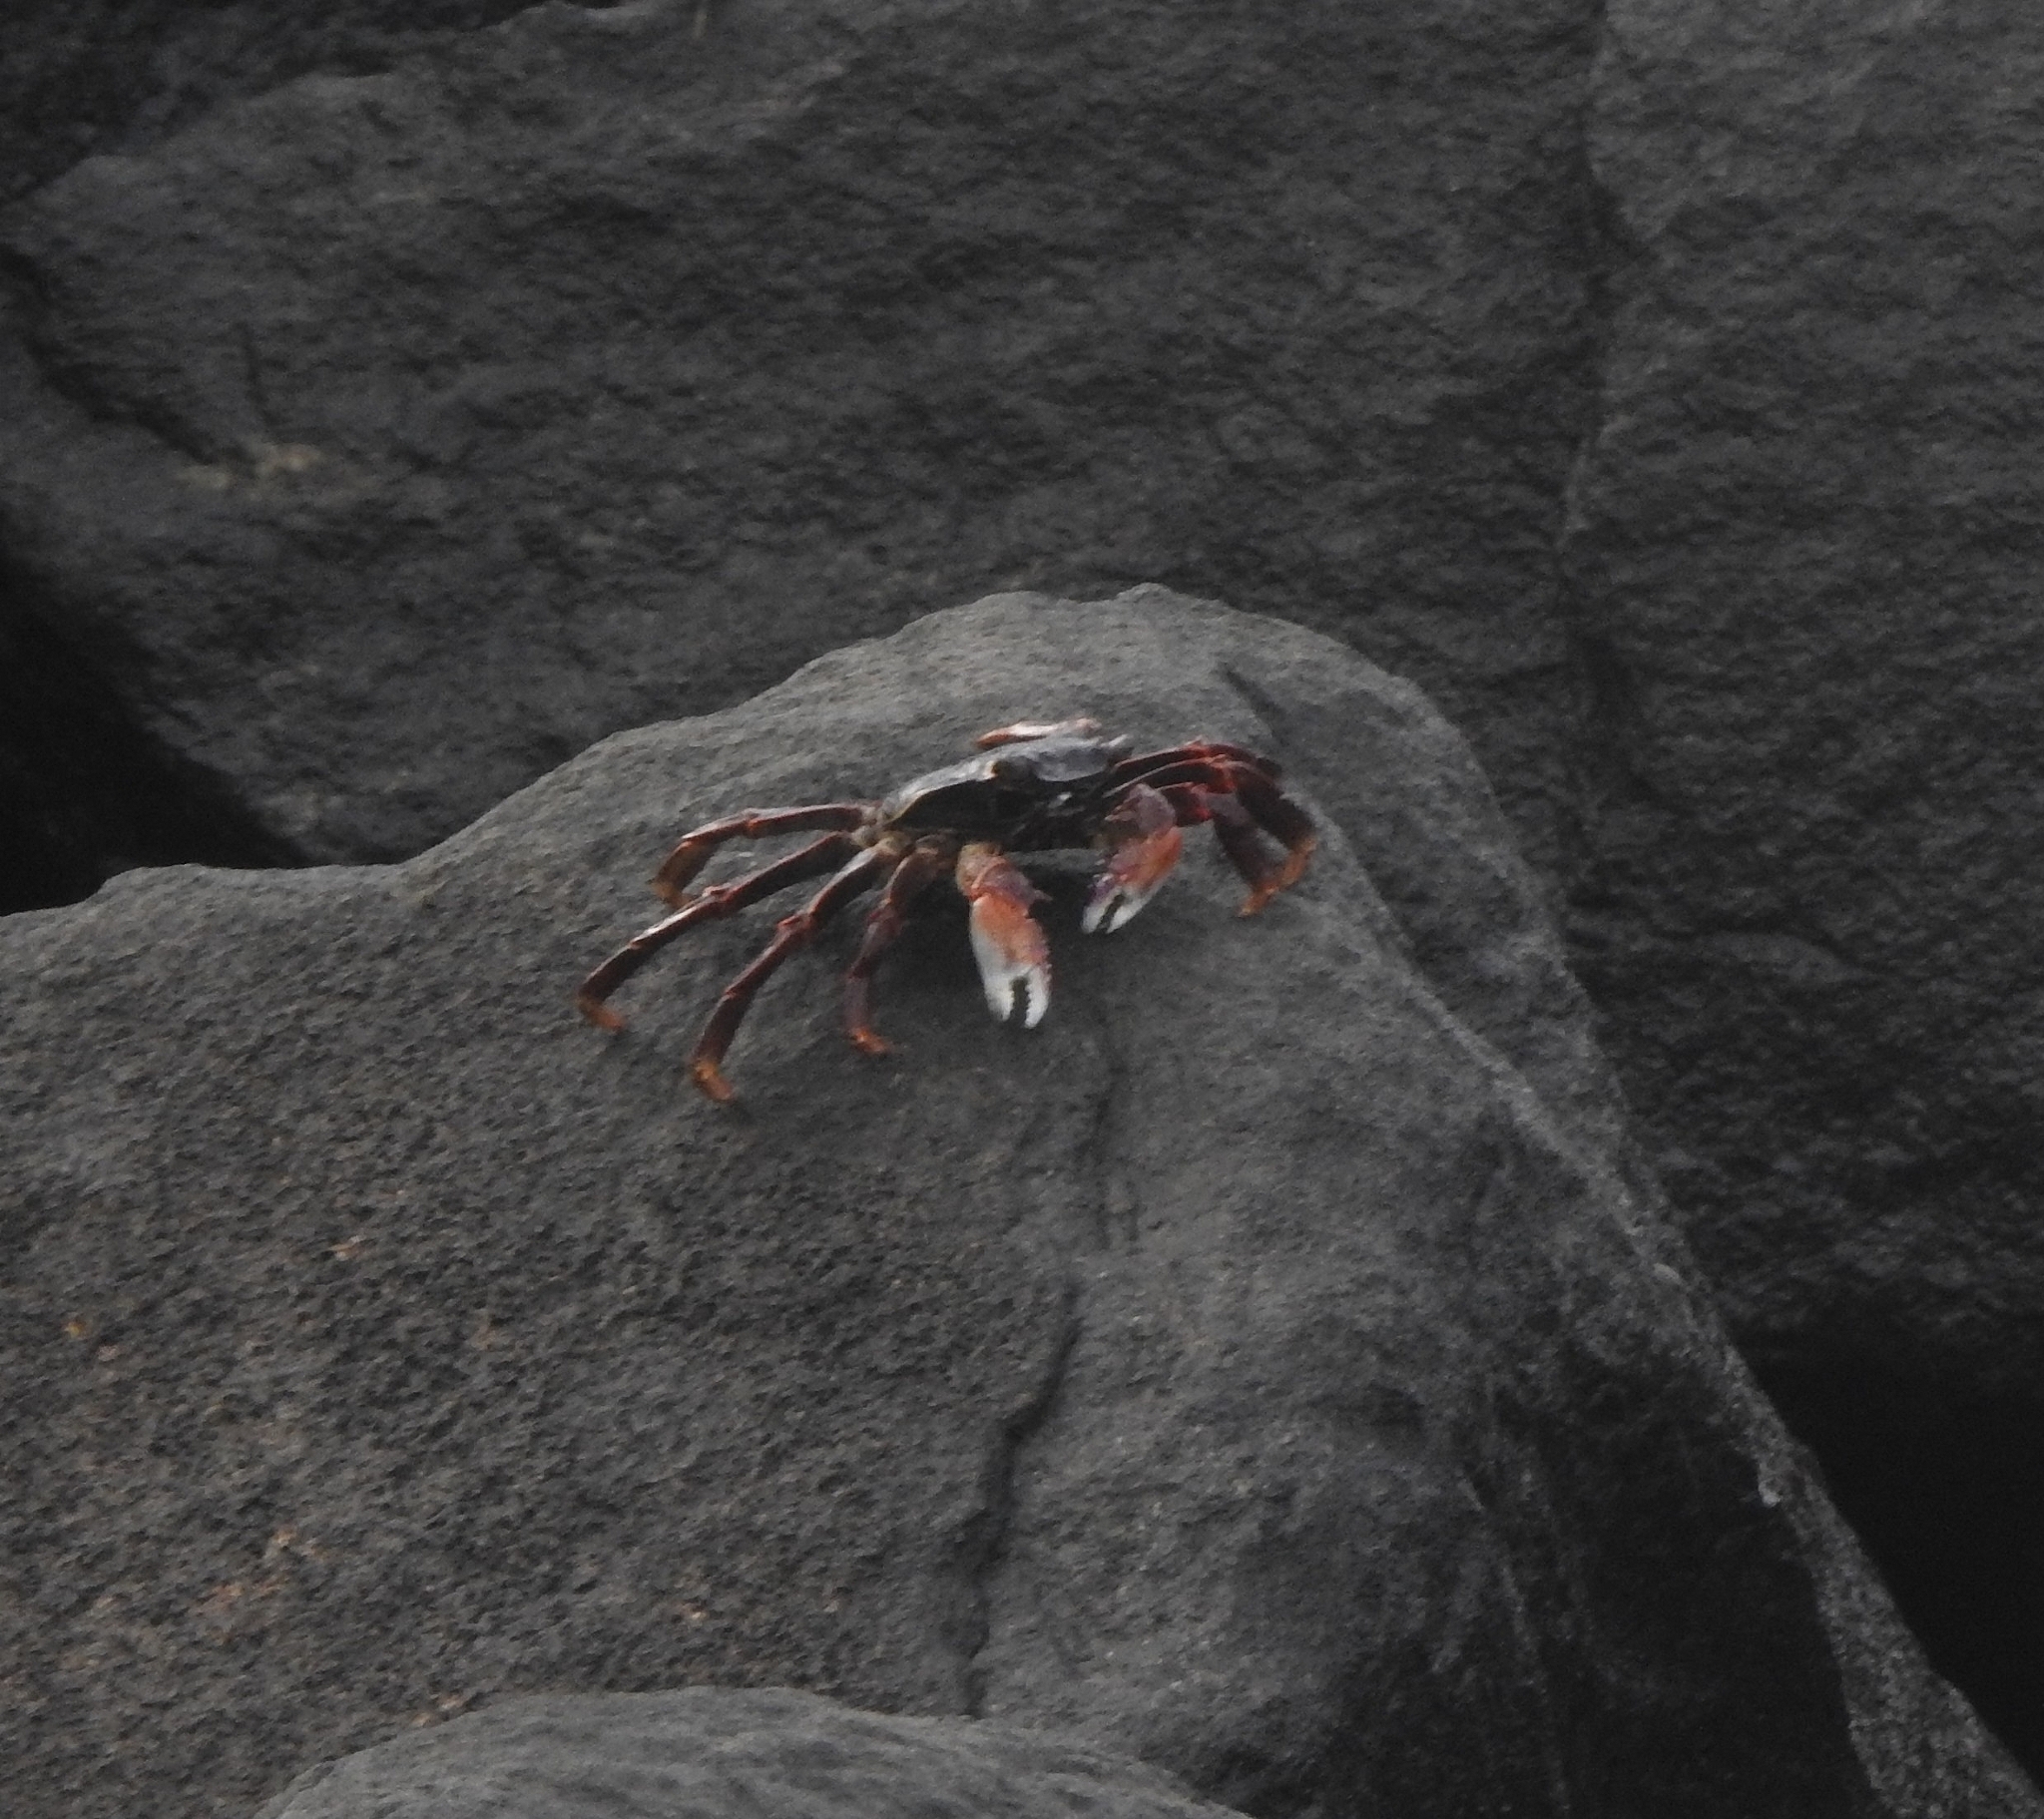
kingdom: Animalia
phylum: Arthropoda
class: Malacostraca
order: Decapoda
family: Grapsidae
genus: Grapsus
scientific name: Grapsus albolineatus
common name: Mottled lightfoot crab
